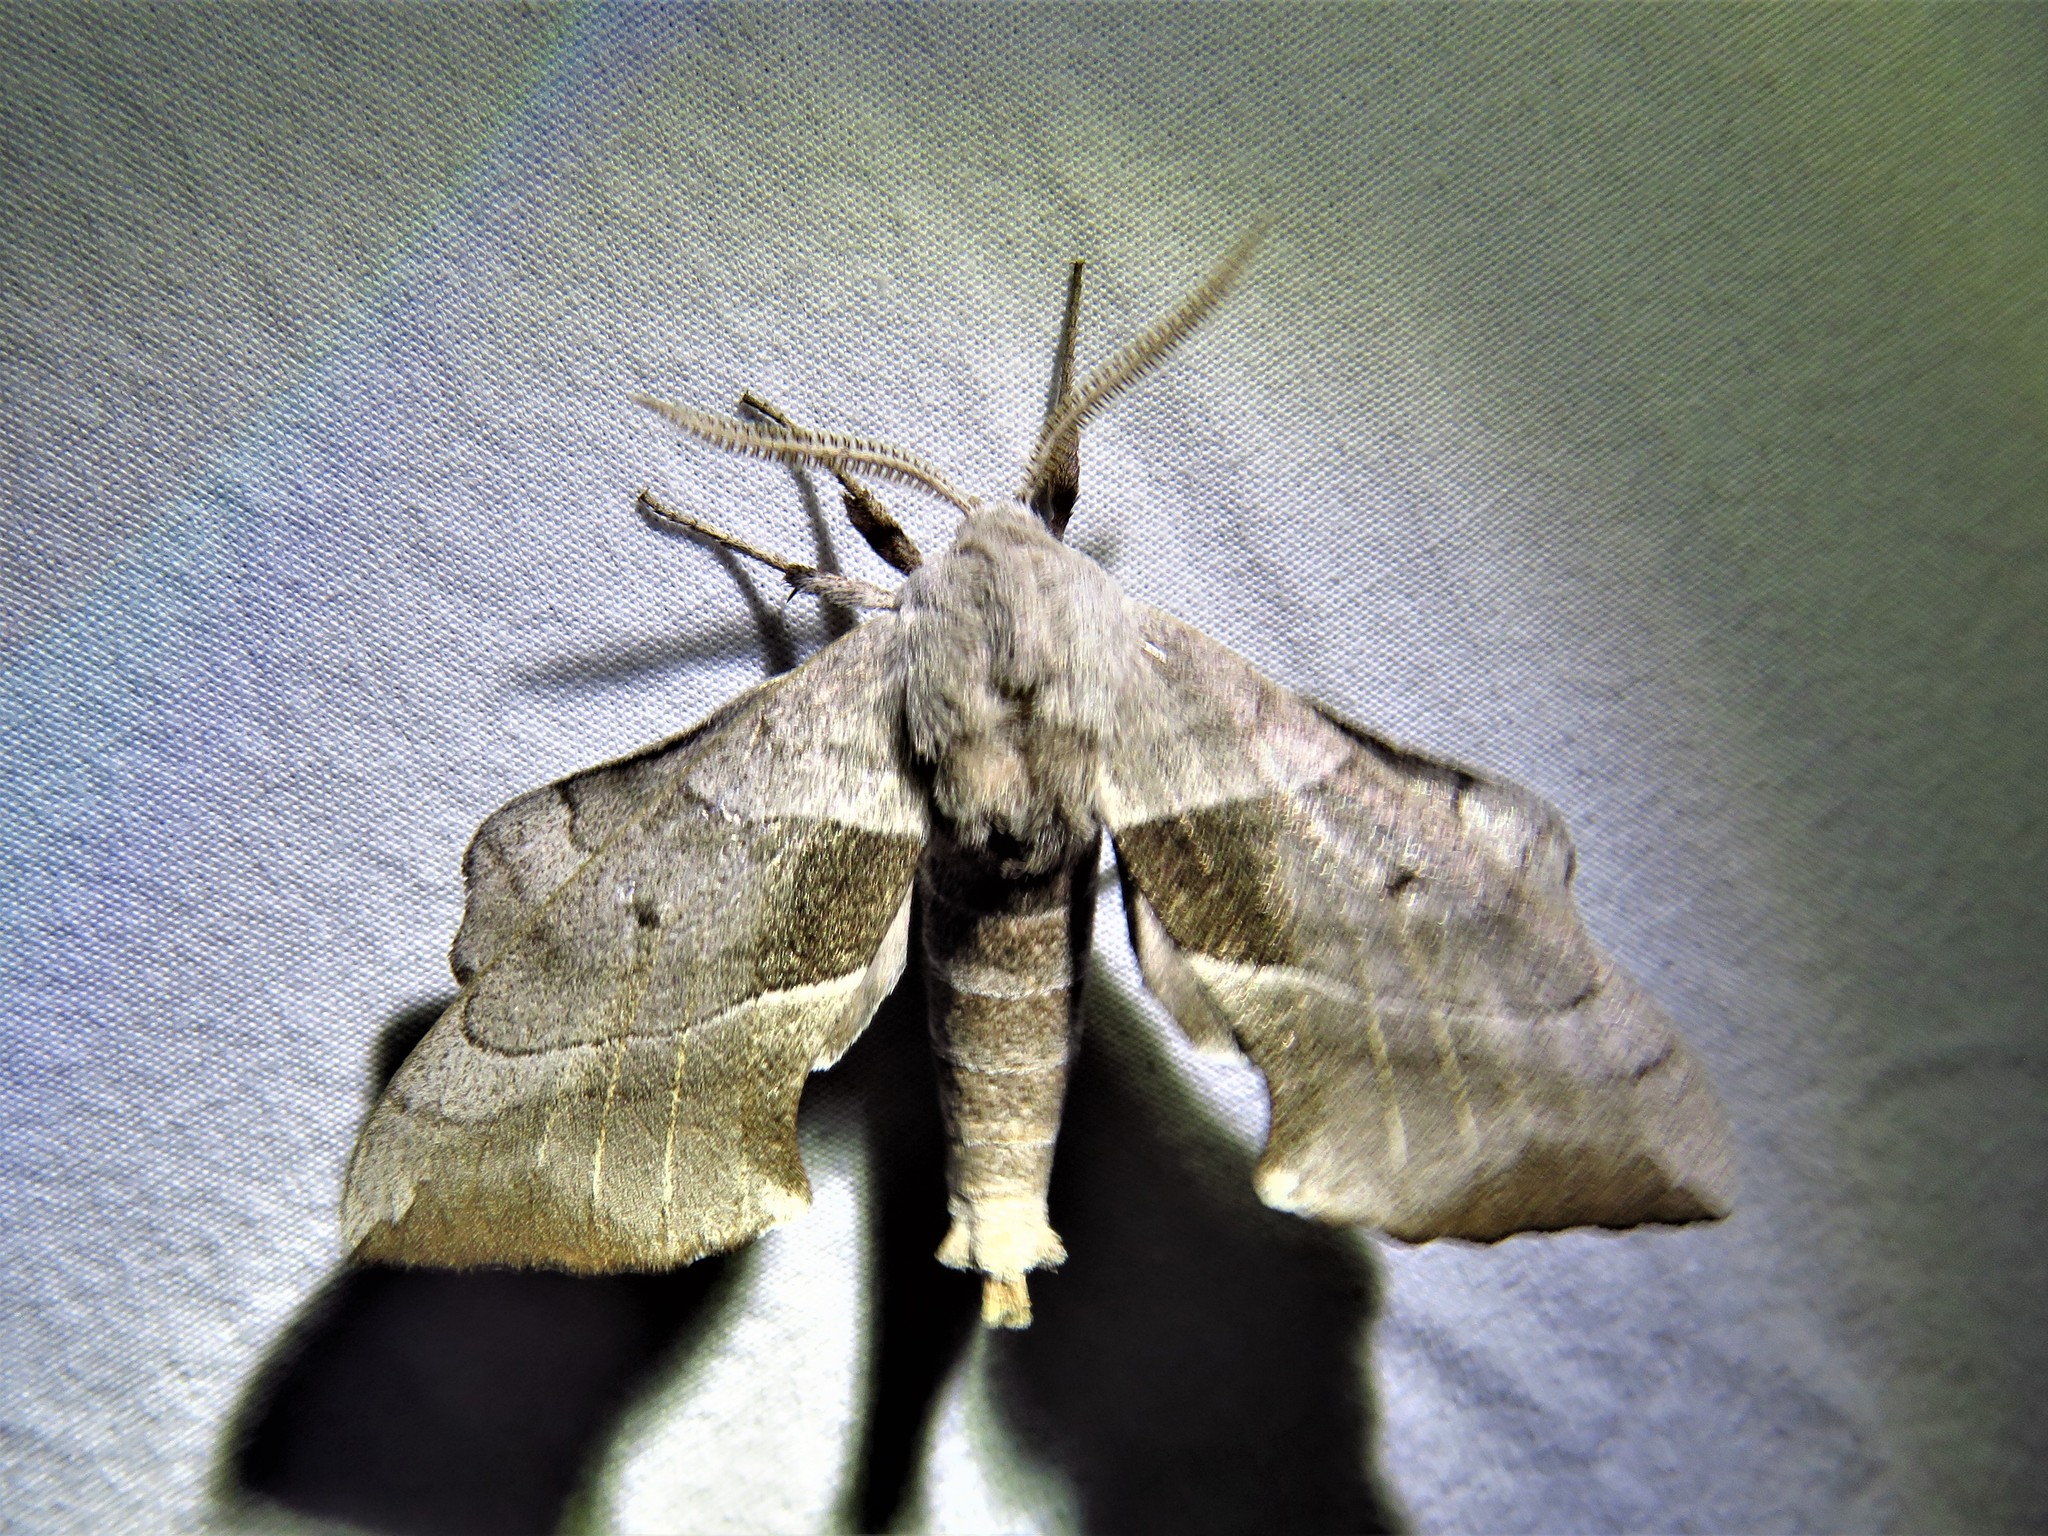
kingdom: Animalia
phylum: Arthropoda
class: Insecta
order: Lepidoptera
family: Sphingidae
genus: Amorpha
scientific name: Amorpha juglandis
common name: Walnut sphinx
